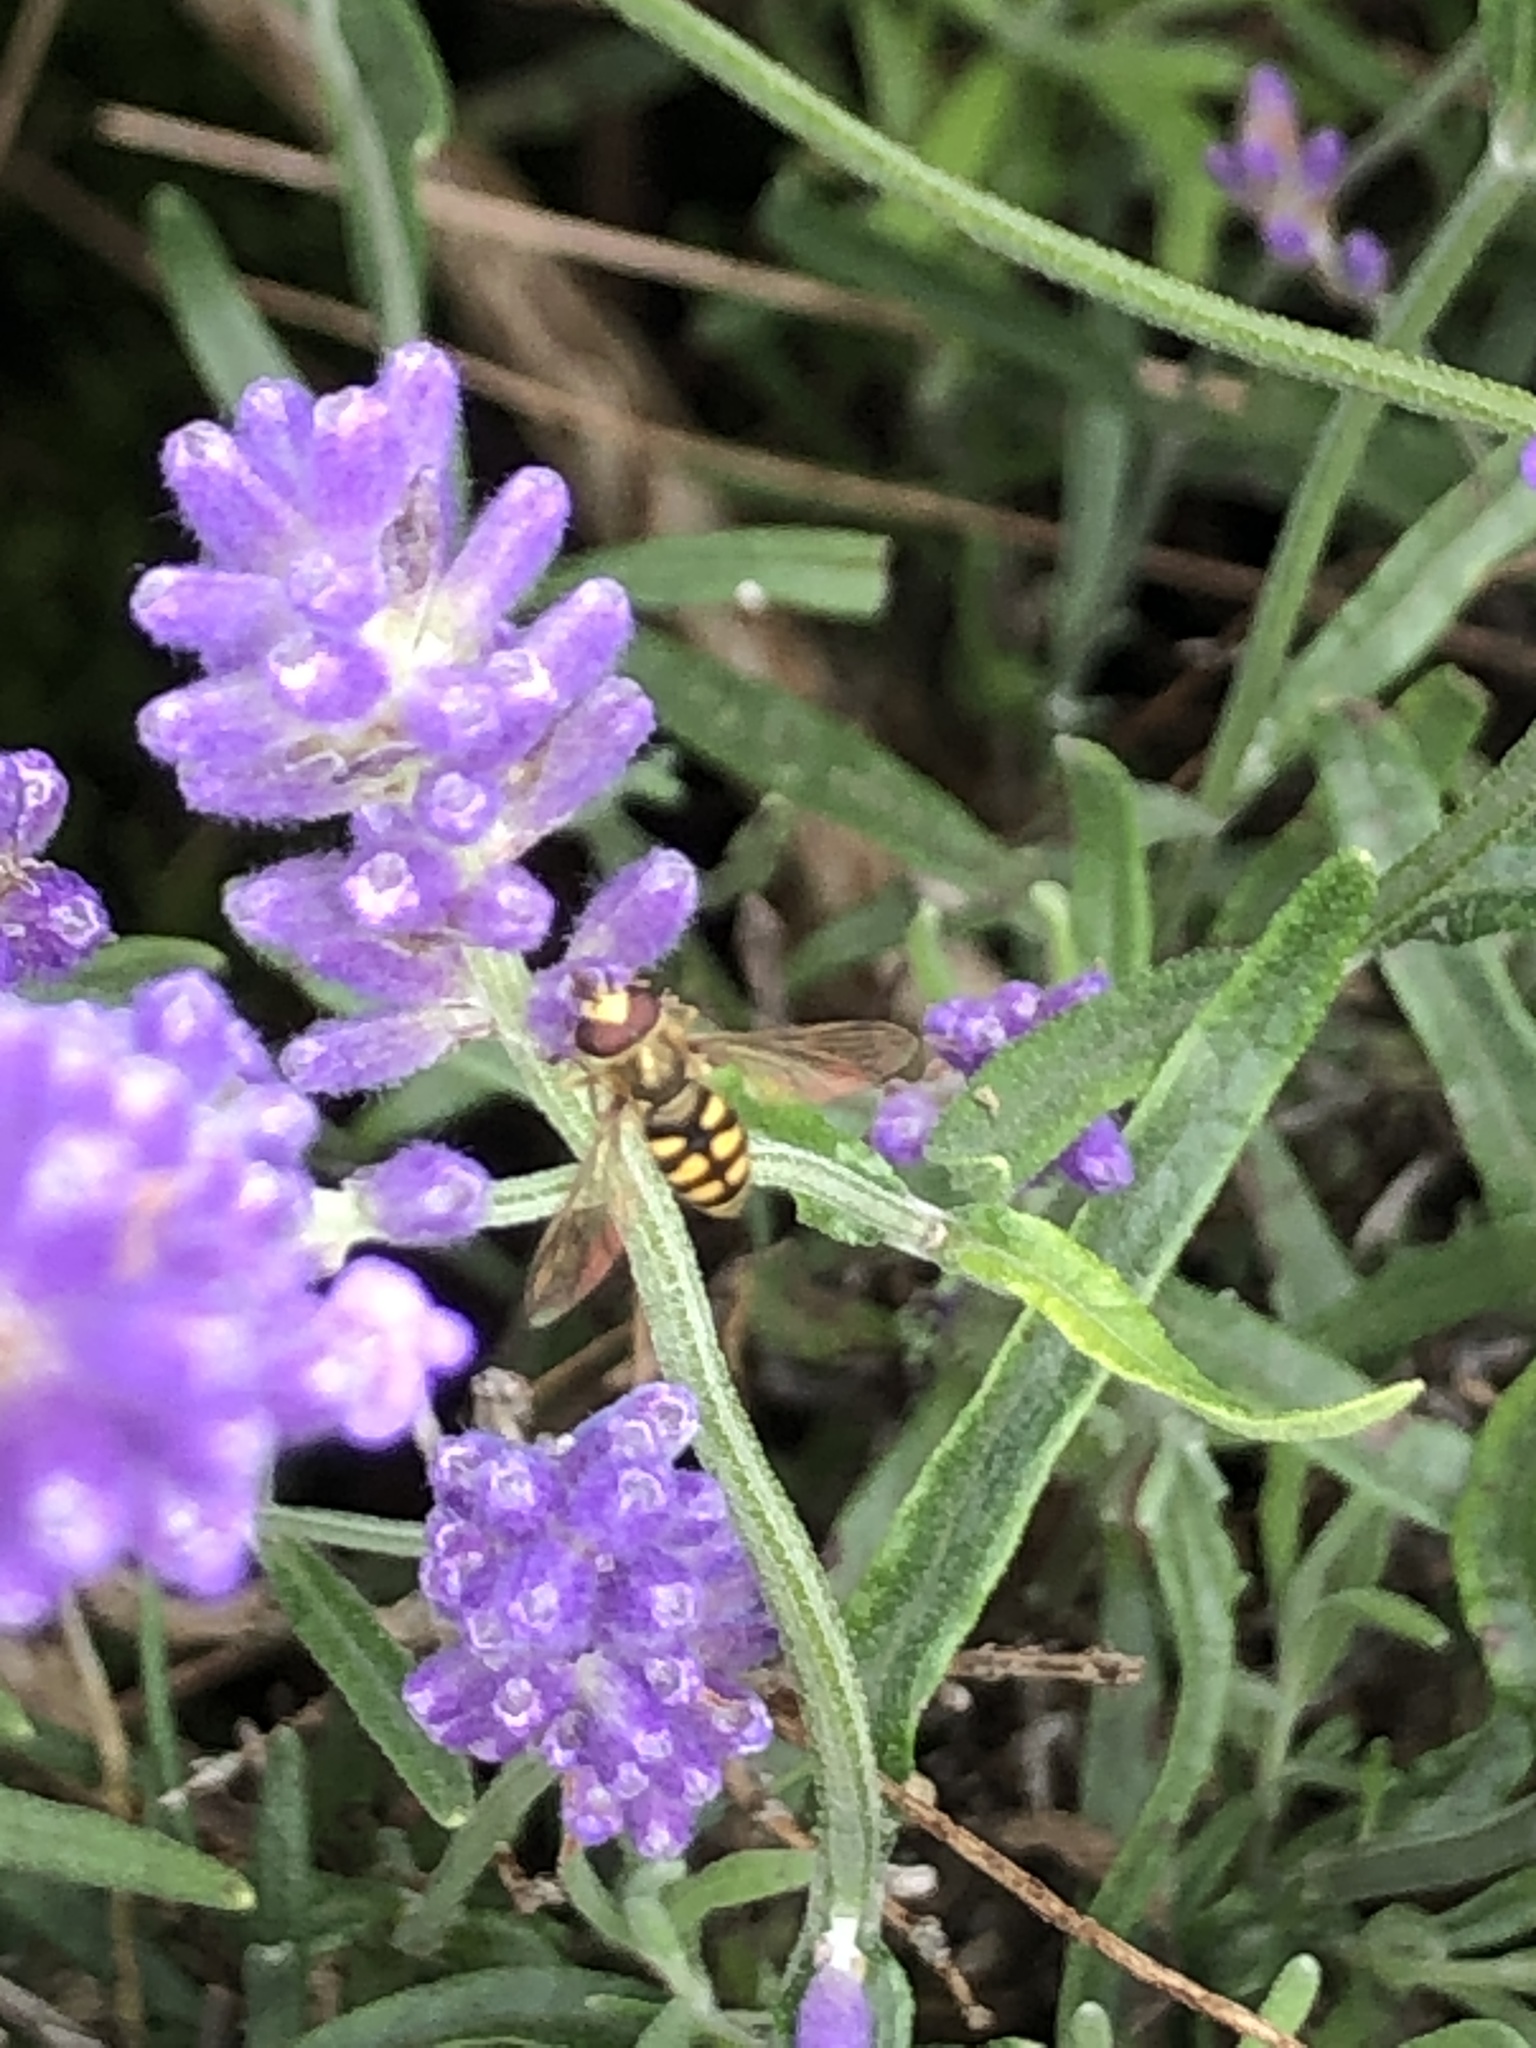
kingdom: Animalia
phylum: Arthropoda
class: Insecta
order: Diptera
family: Syrphidae
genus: Eupeodes
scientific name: Eupeodes
